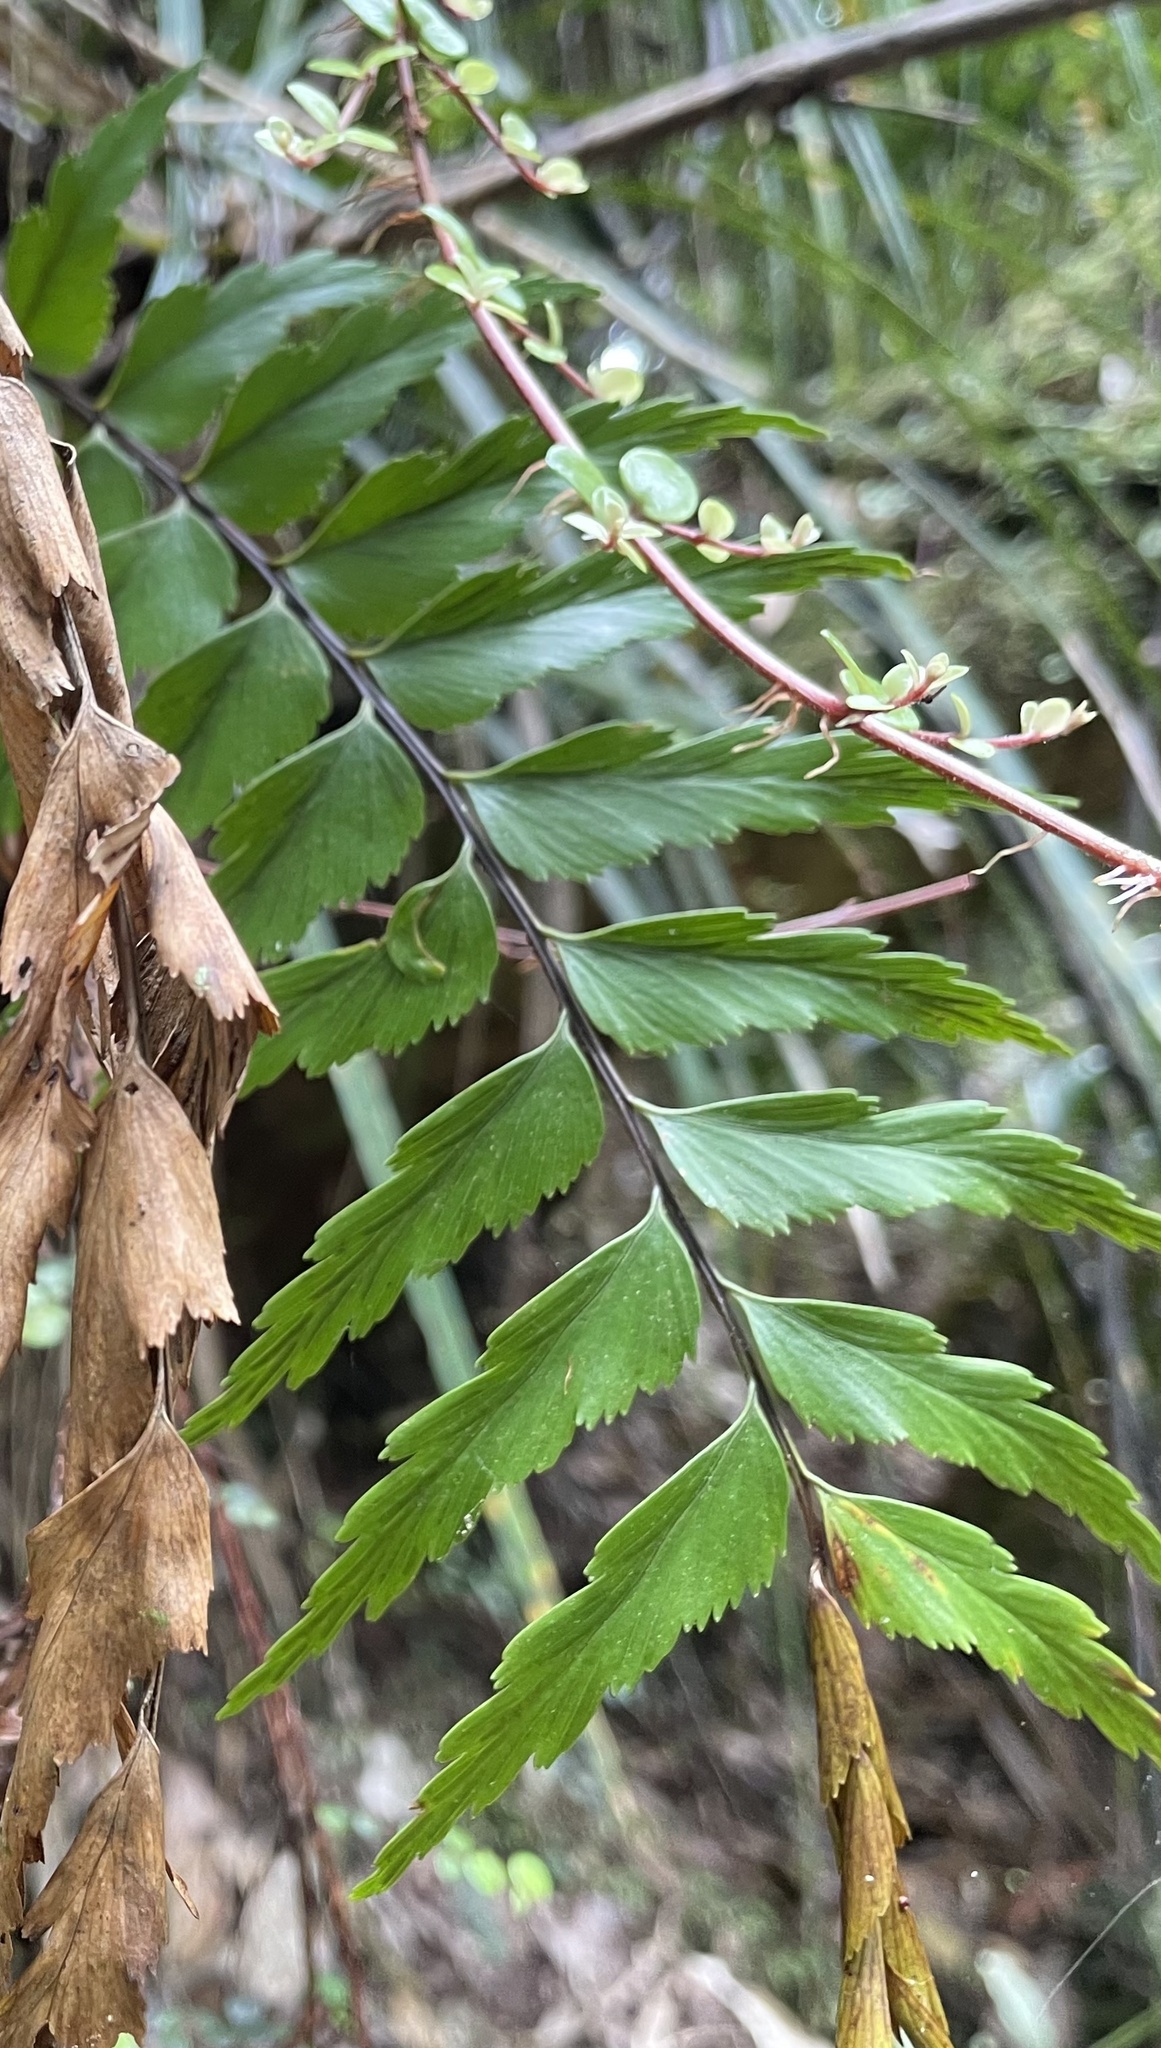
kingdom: Plantae
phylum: Tracheophyta
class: Polypodiopsida
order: Polypodiales
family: Aspleniaceae
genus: Asplenium
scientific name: Asplenium polyodon
